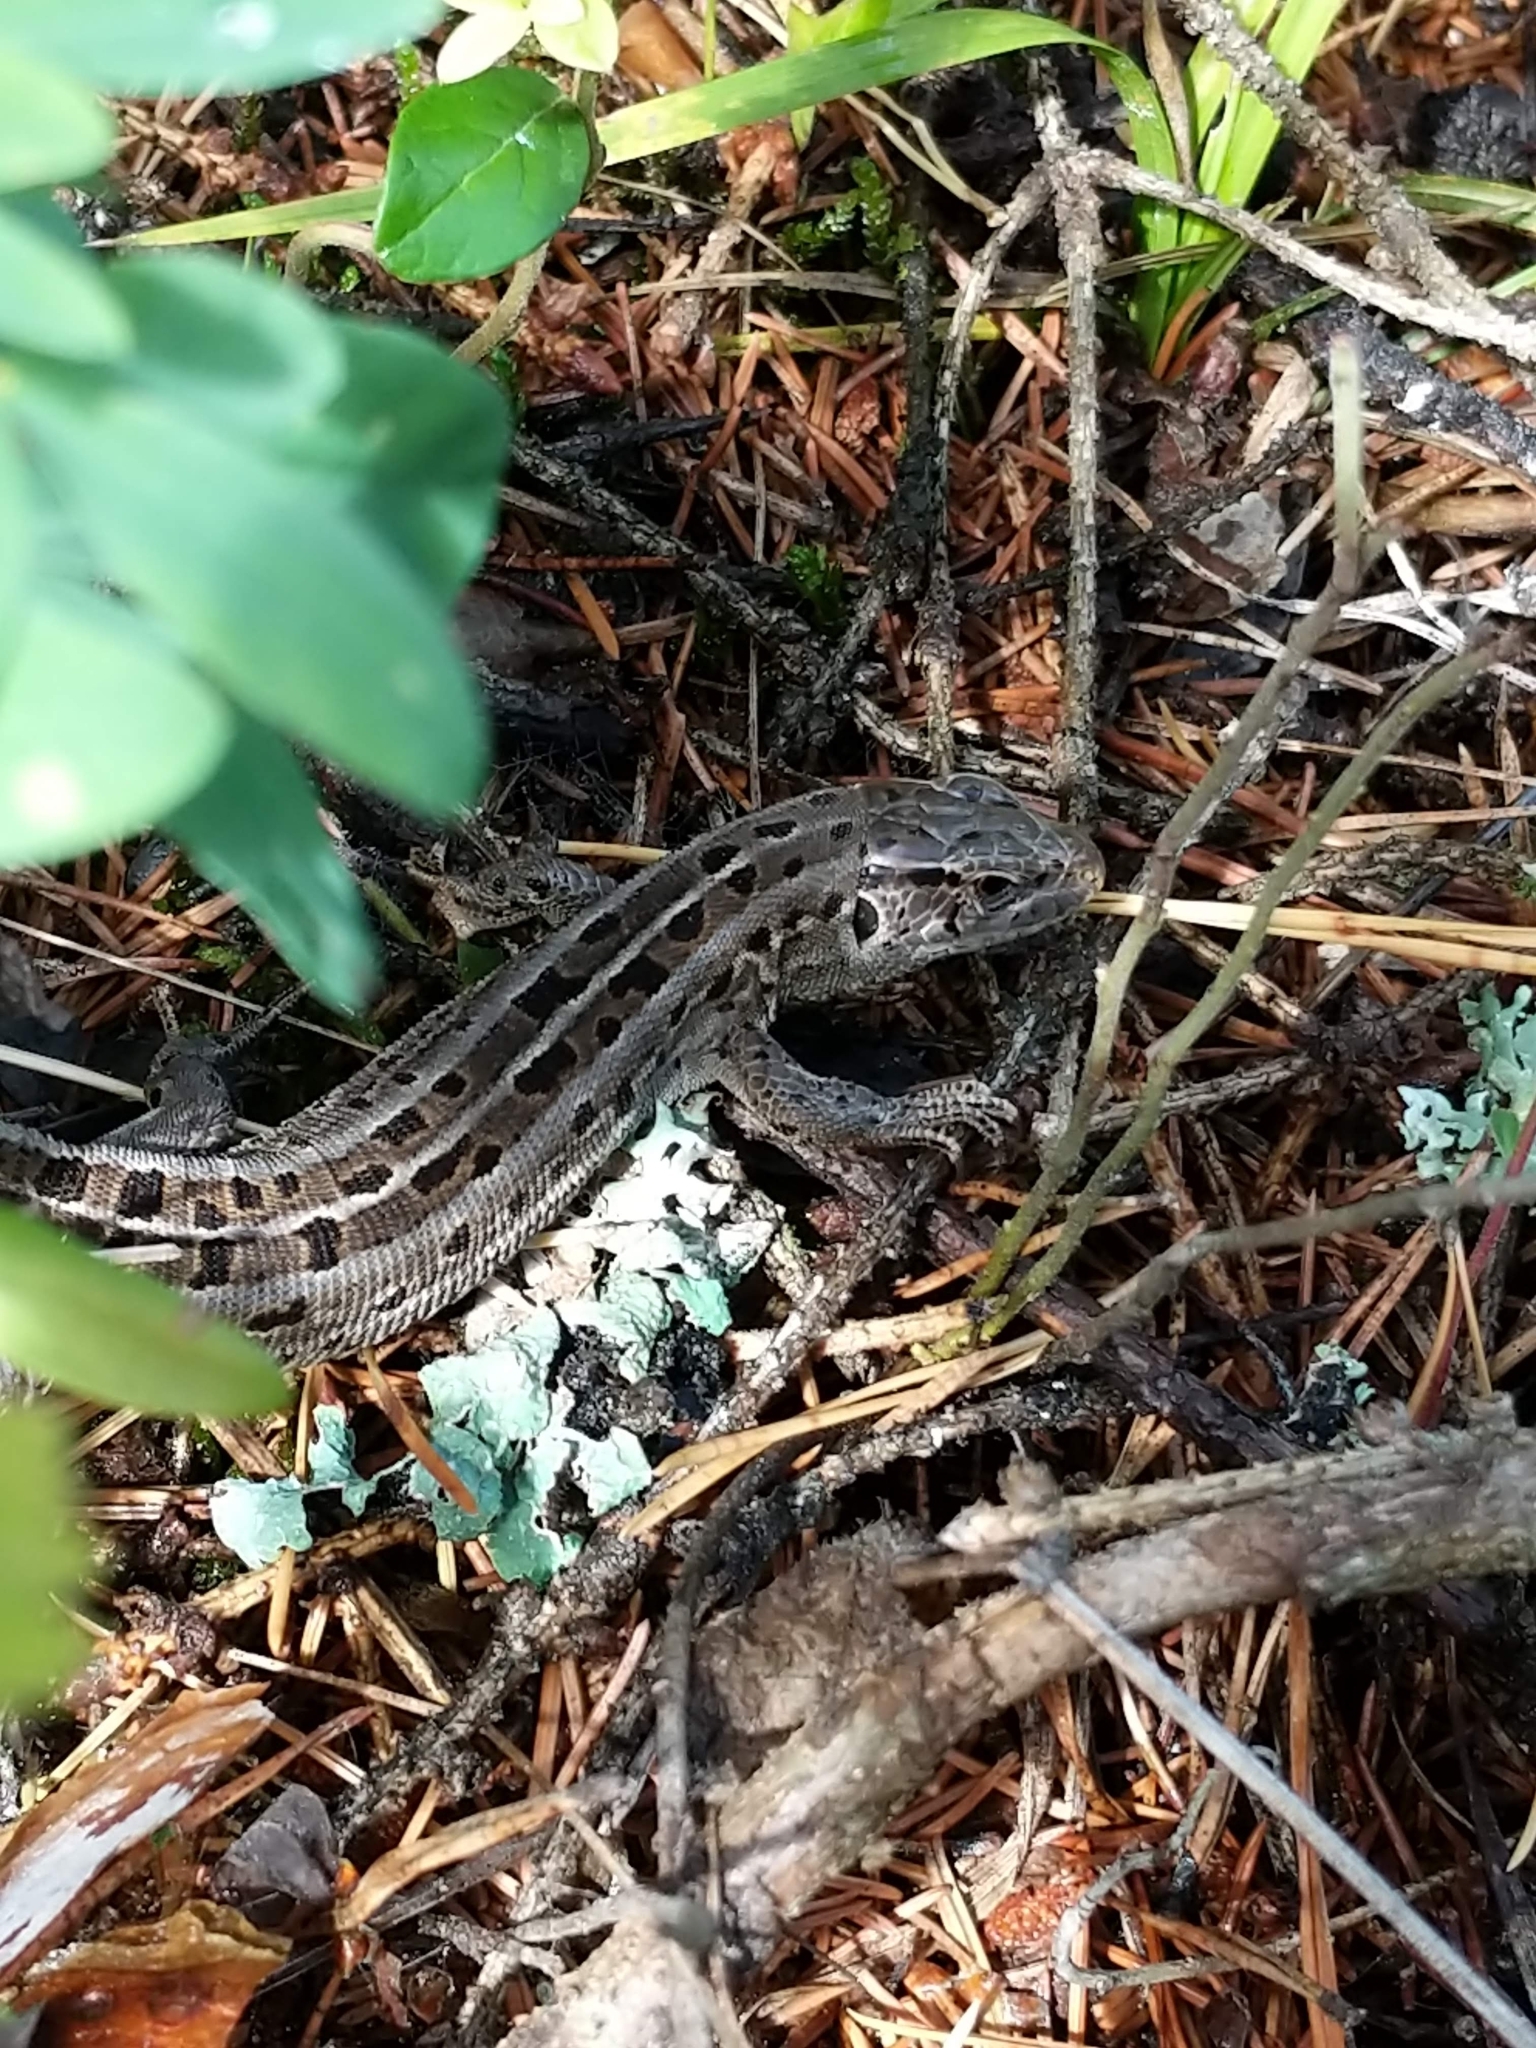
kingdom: Animalia
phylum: Chordata
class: Squamata
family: Lacertidae
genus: Lacerta
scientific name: Lacerta agilis
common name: Sand lizard
